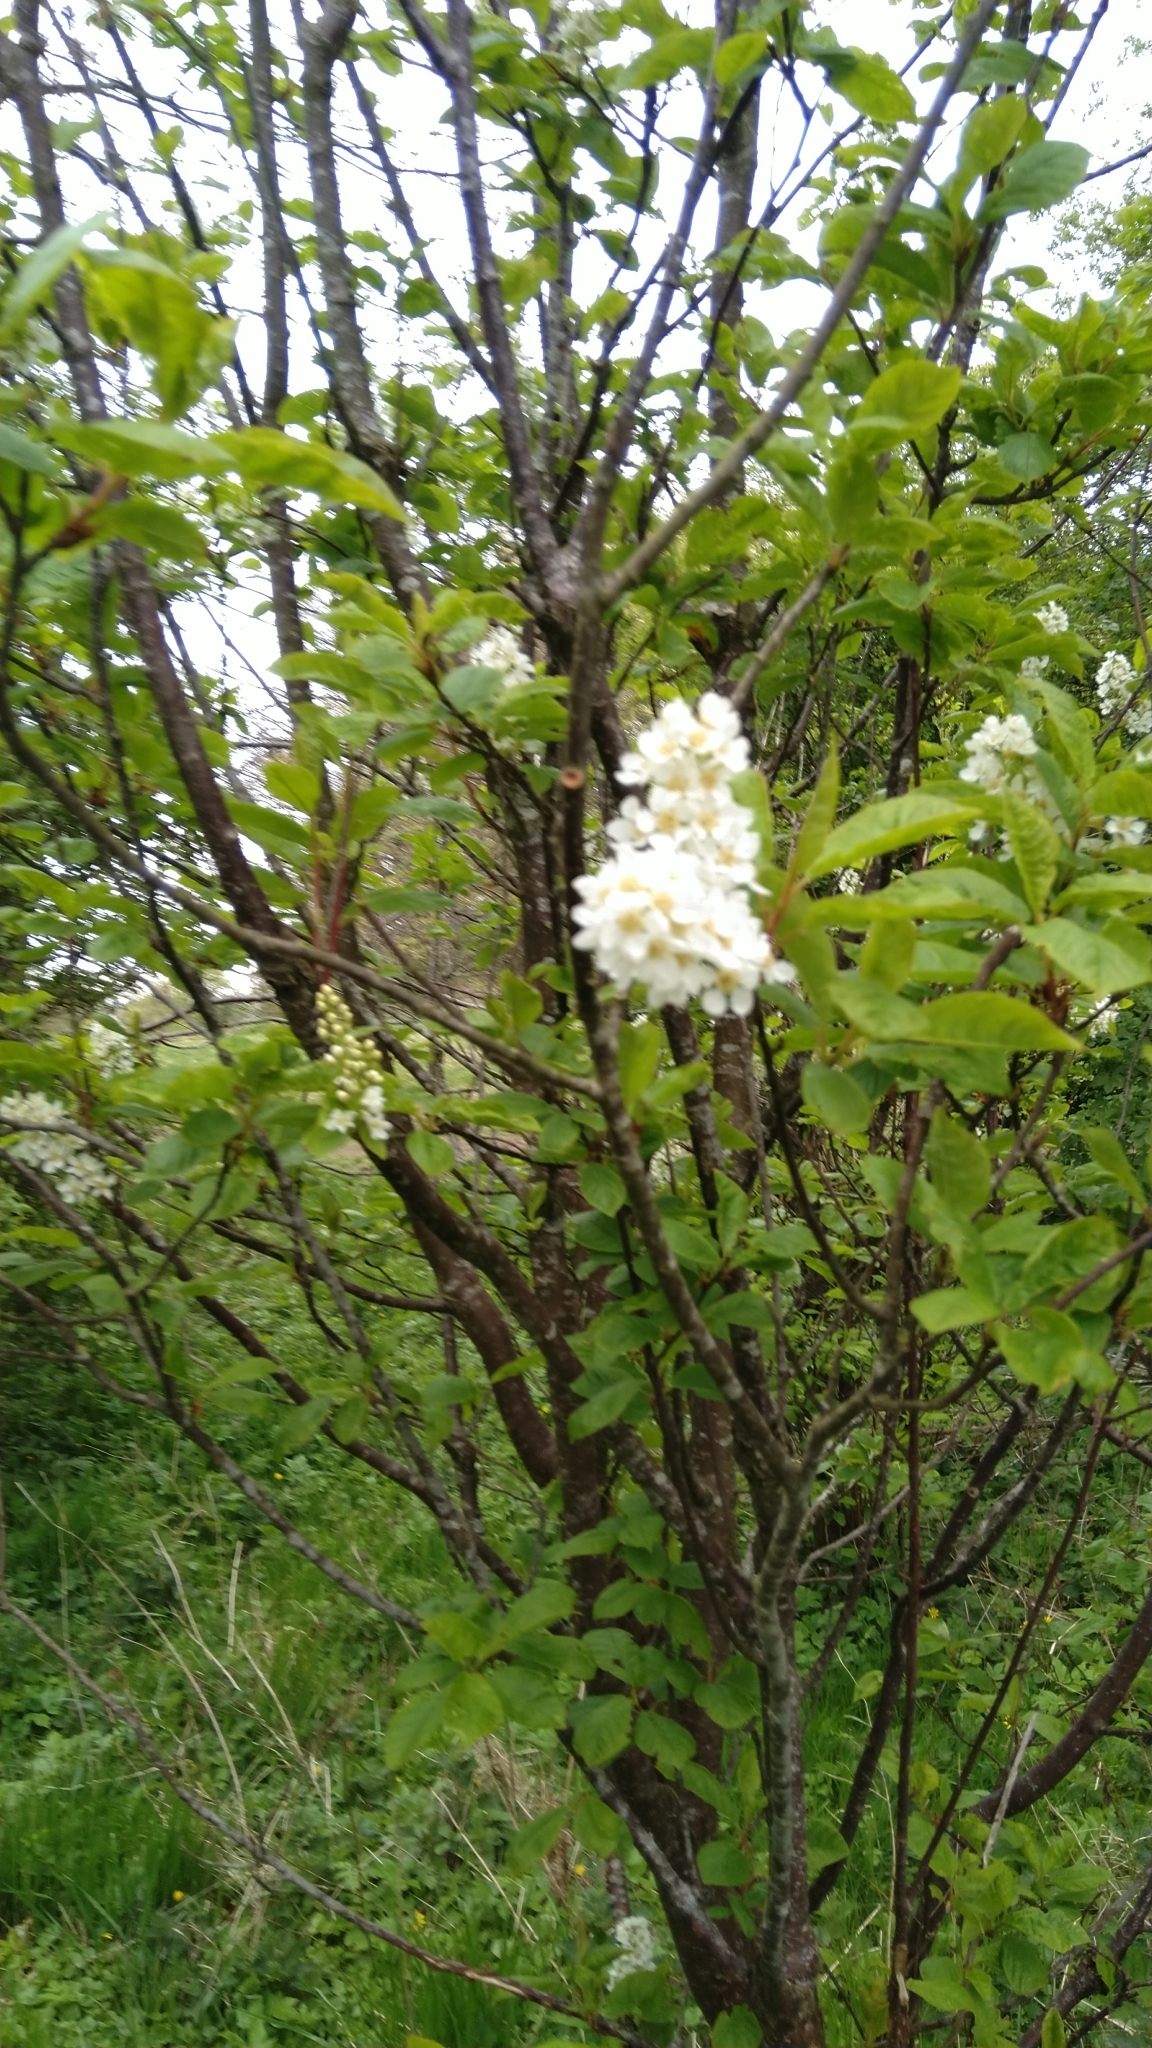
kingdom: Plantae
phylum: Tracheophyta
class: Magnoliopsida
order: Rosales
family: Rosaceae
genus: Prunus
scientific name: Prunus padus
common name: Bird cherry
